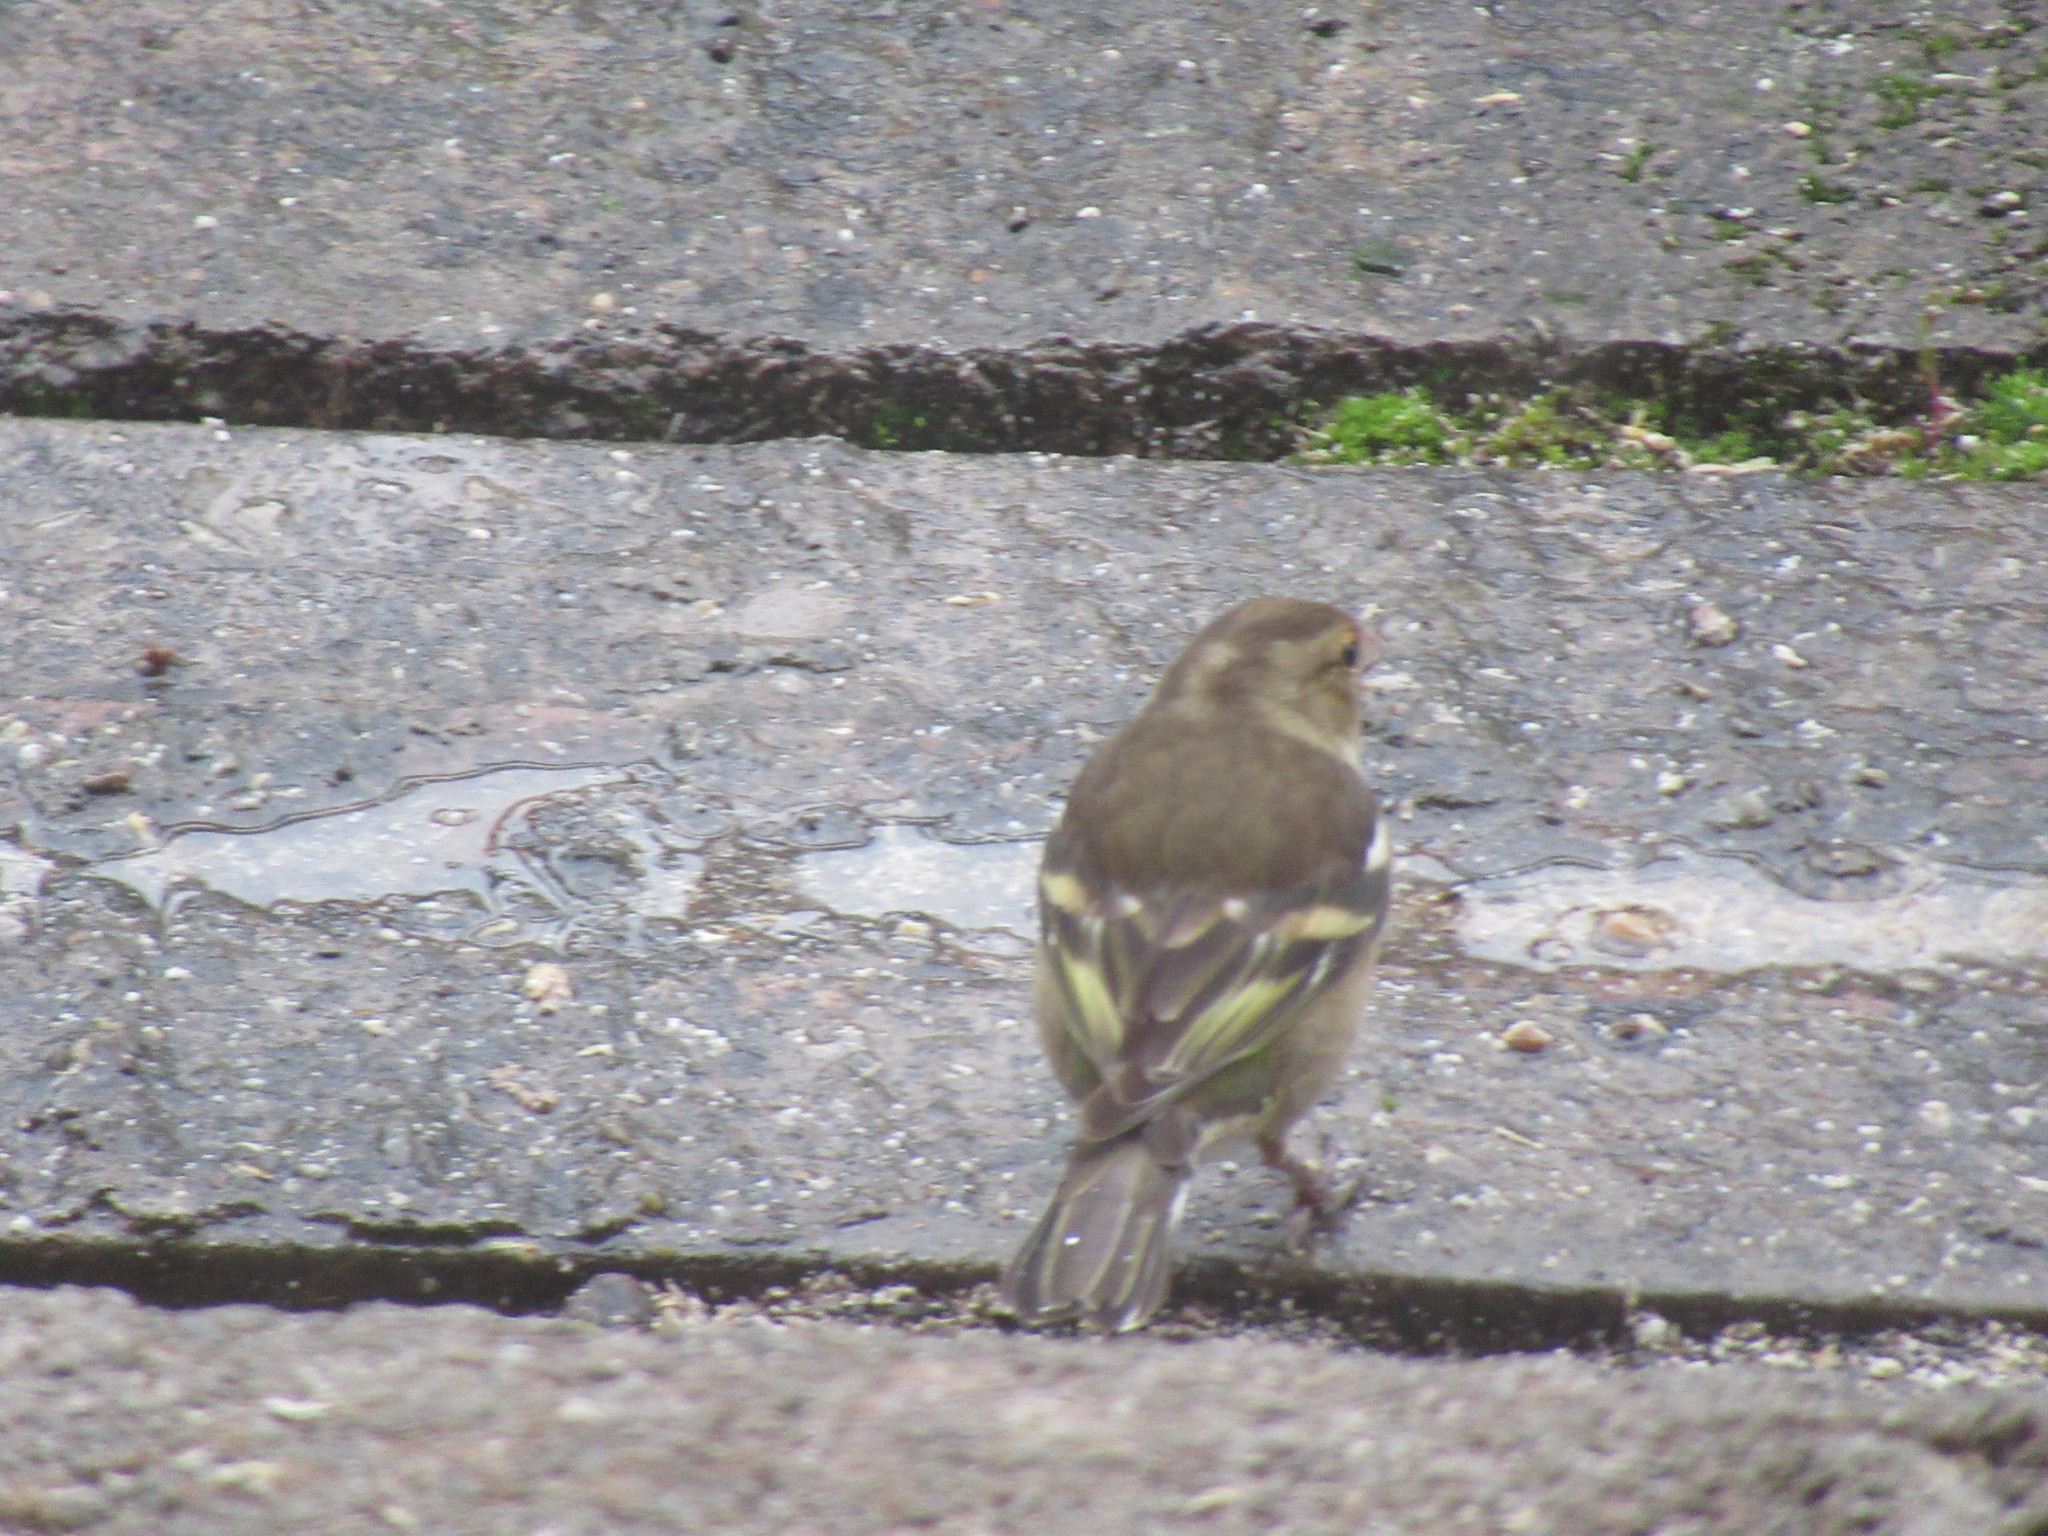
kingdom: Animalia
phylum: Chordata
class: Aves
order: Passeriformes
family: Fringillidae
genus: Fringilla
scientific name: Fringilla coelebs
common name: Common chaffinch
